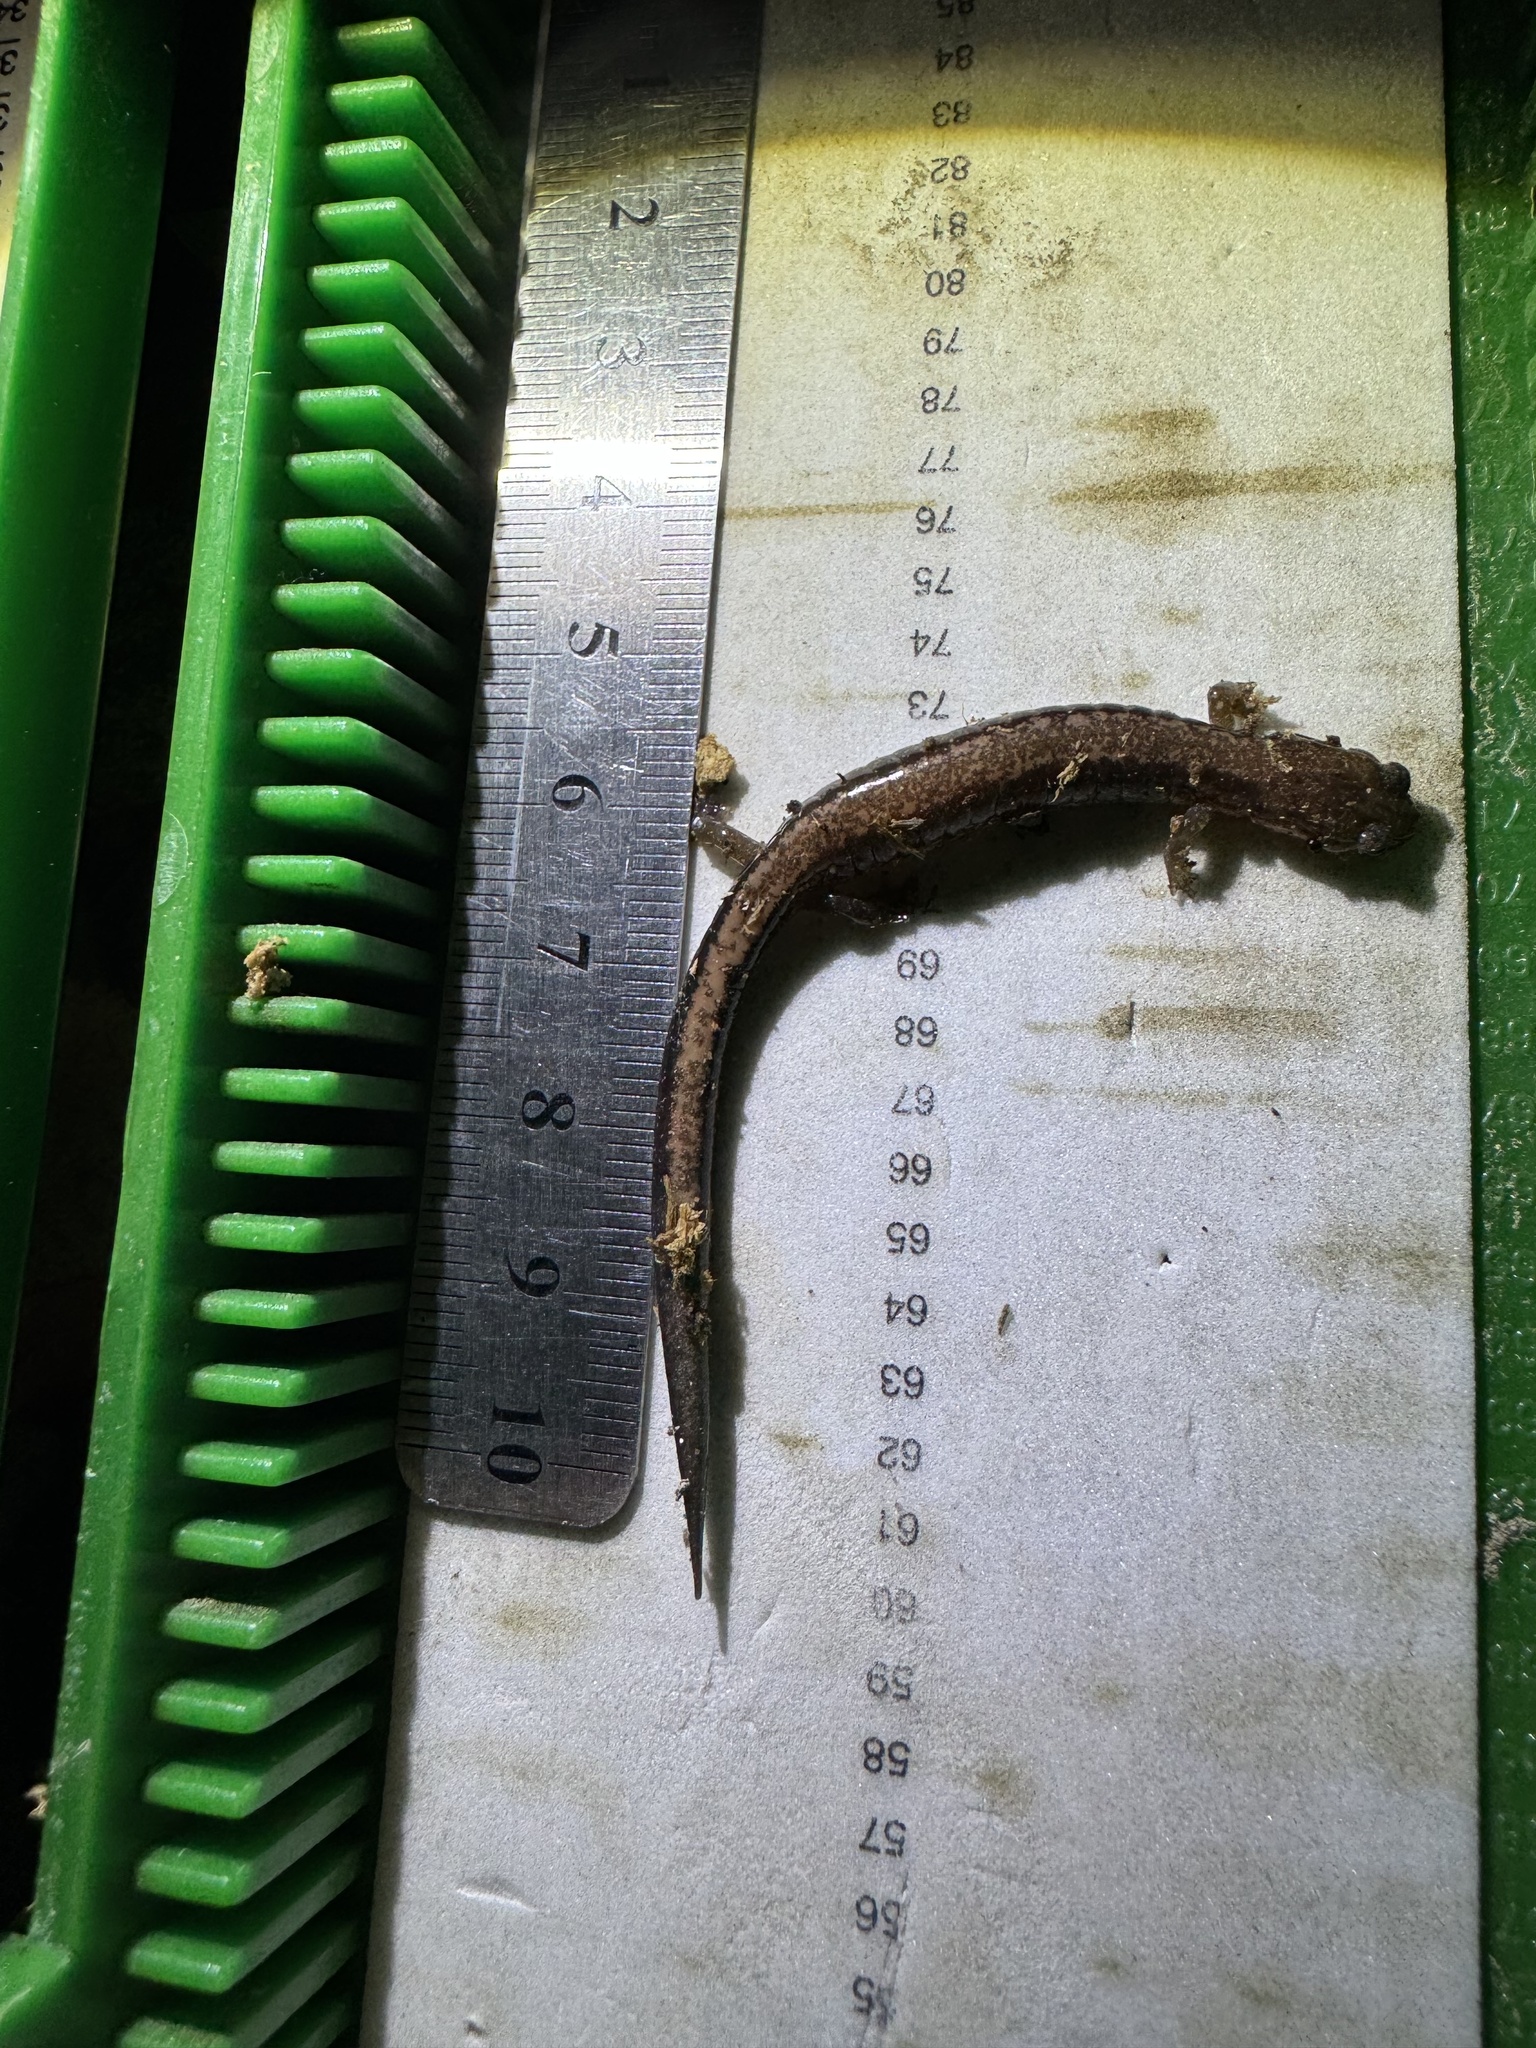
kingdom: Animalia
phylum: Chordata
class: Amphibia
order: Caudata
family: Plethodontidae
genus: Plethodon
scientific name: Plethodon cinereus
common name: Redback salamander
